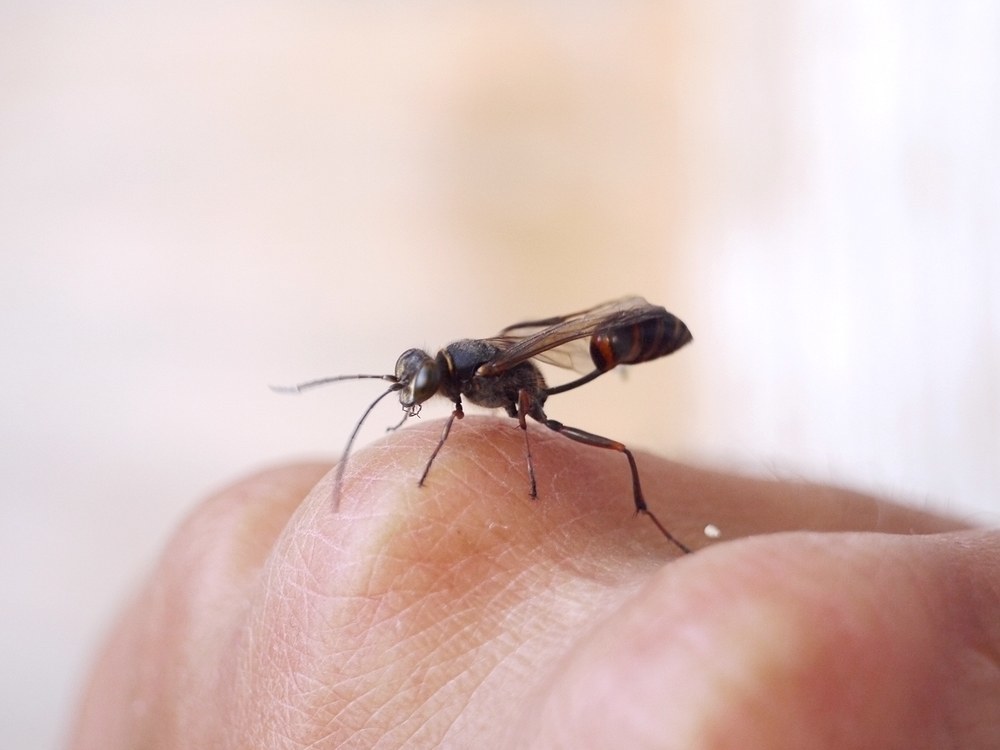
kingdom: Animalia
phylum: Arthropoda
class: Insecta
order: Hymenoptera
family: Sphecidae
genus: Sceliphron
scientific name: Sceliphron curvatum
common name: Pèlopèe
